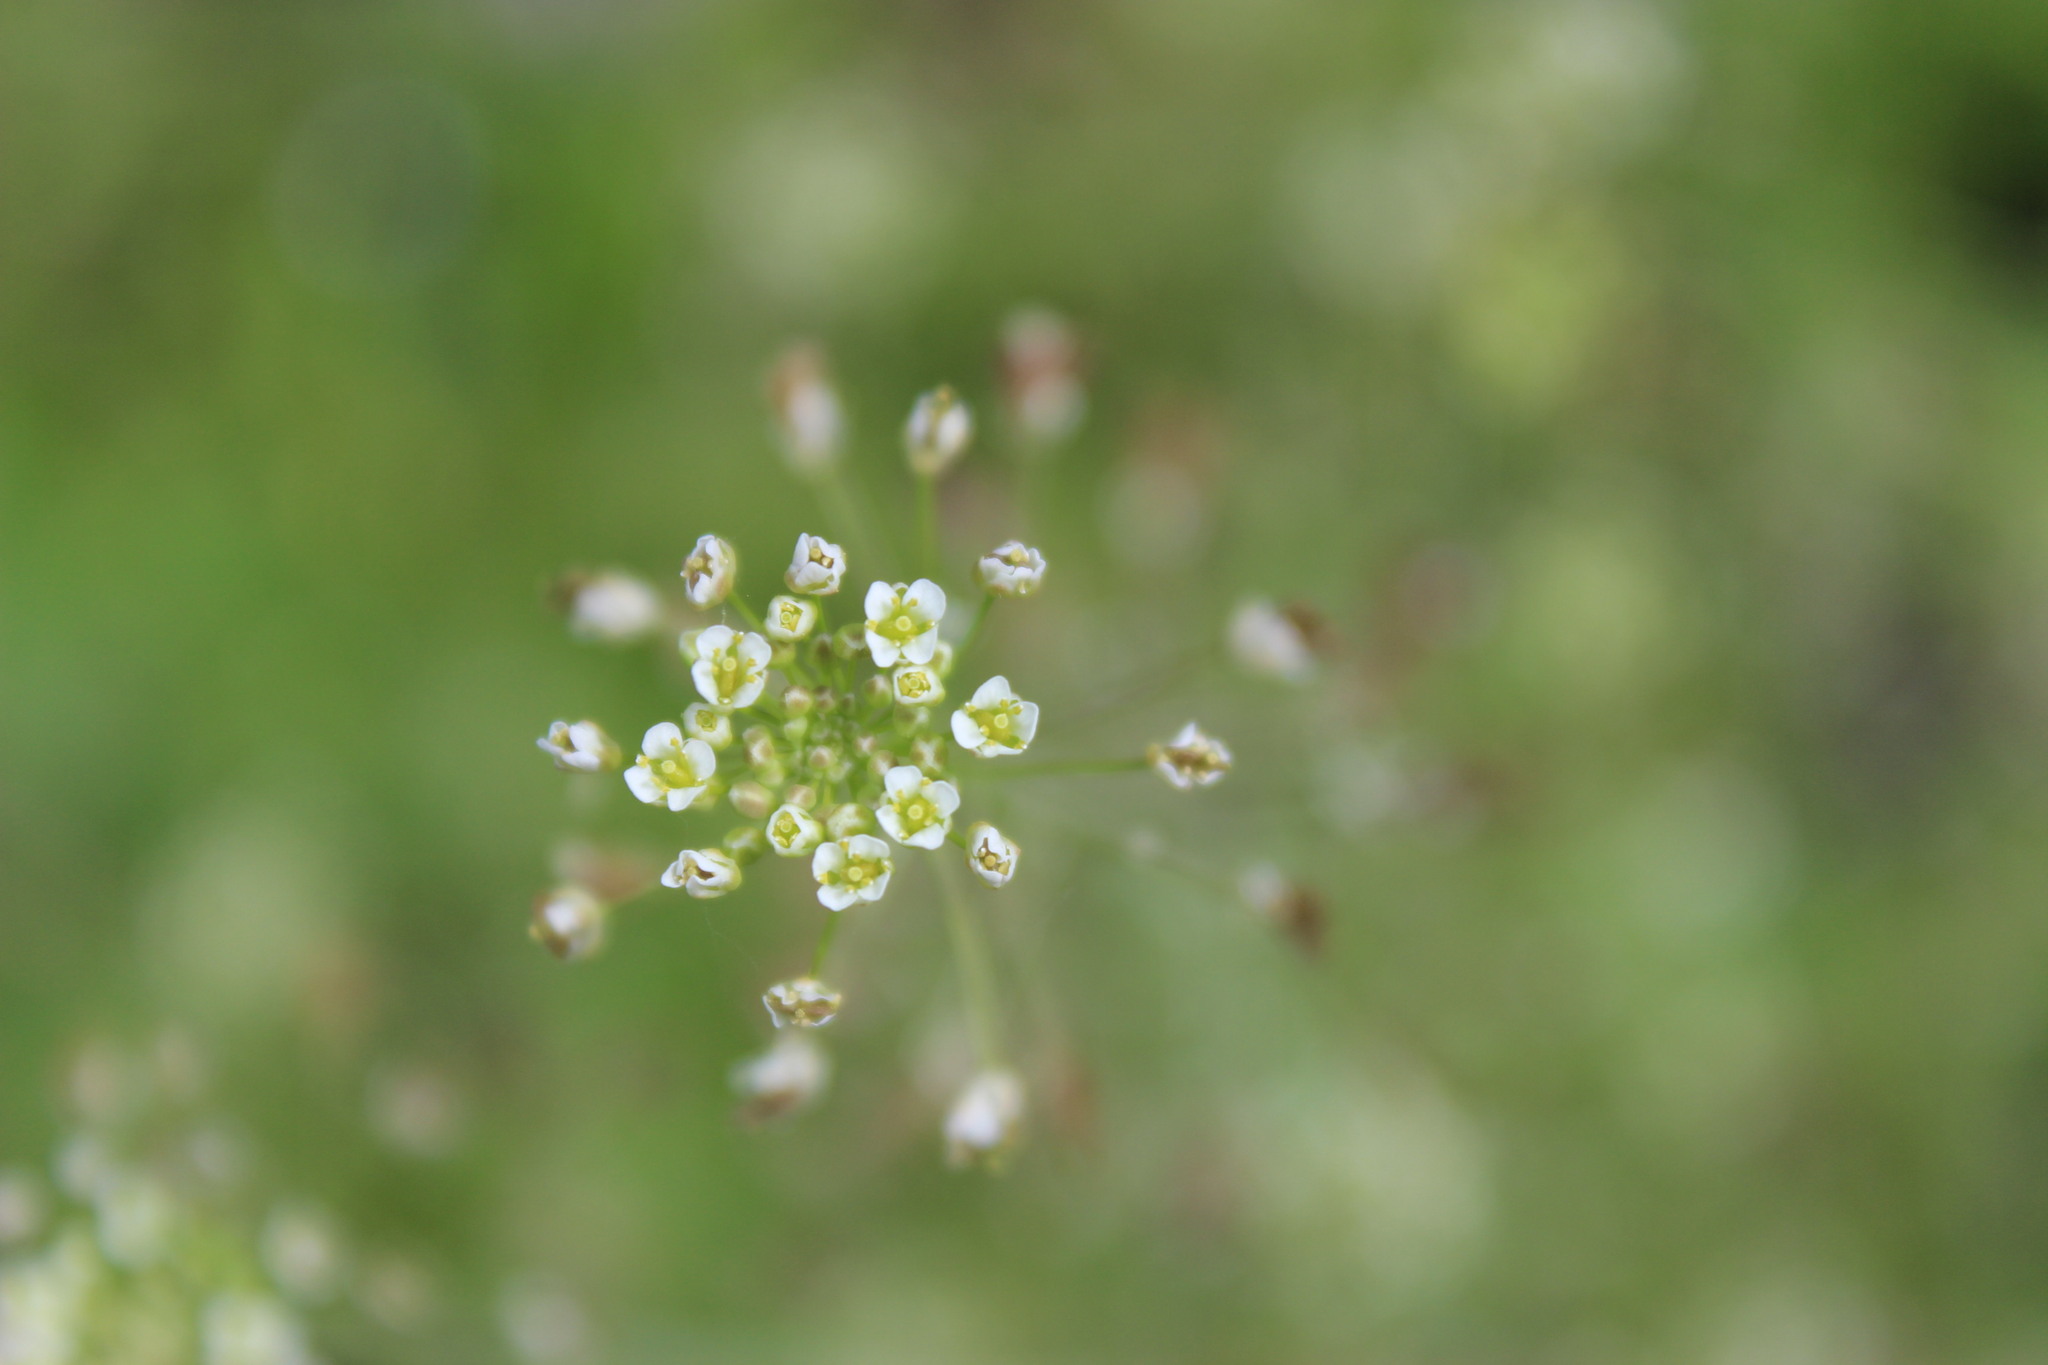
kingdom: Plantae
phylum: Tracheophyta
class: Magnoliopsida
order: Brassicales
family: Brassicaceae
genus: Capsella
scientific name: Capsella bursa-pastoris
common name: Shepherd's purse
